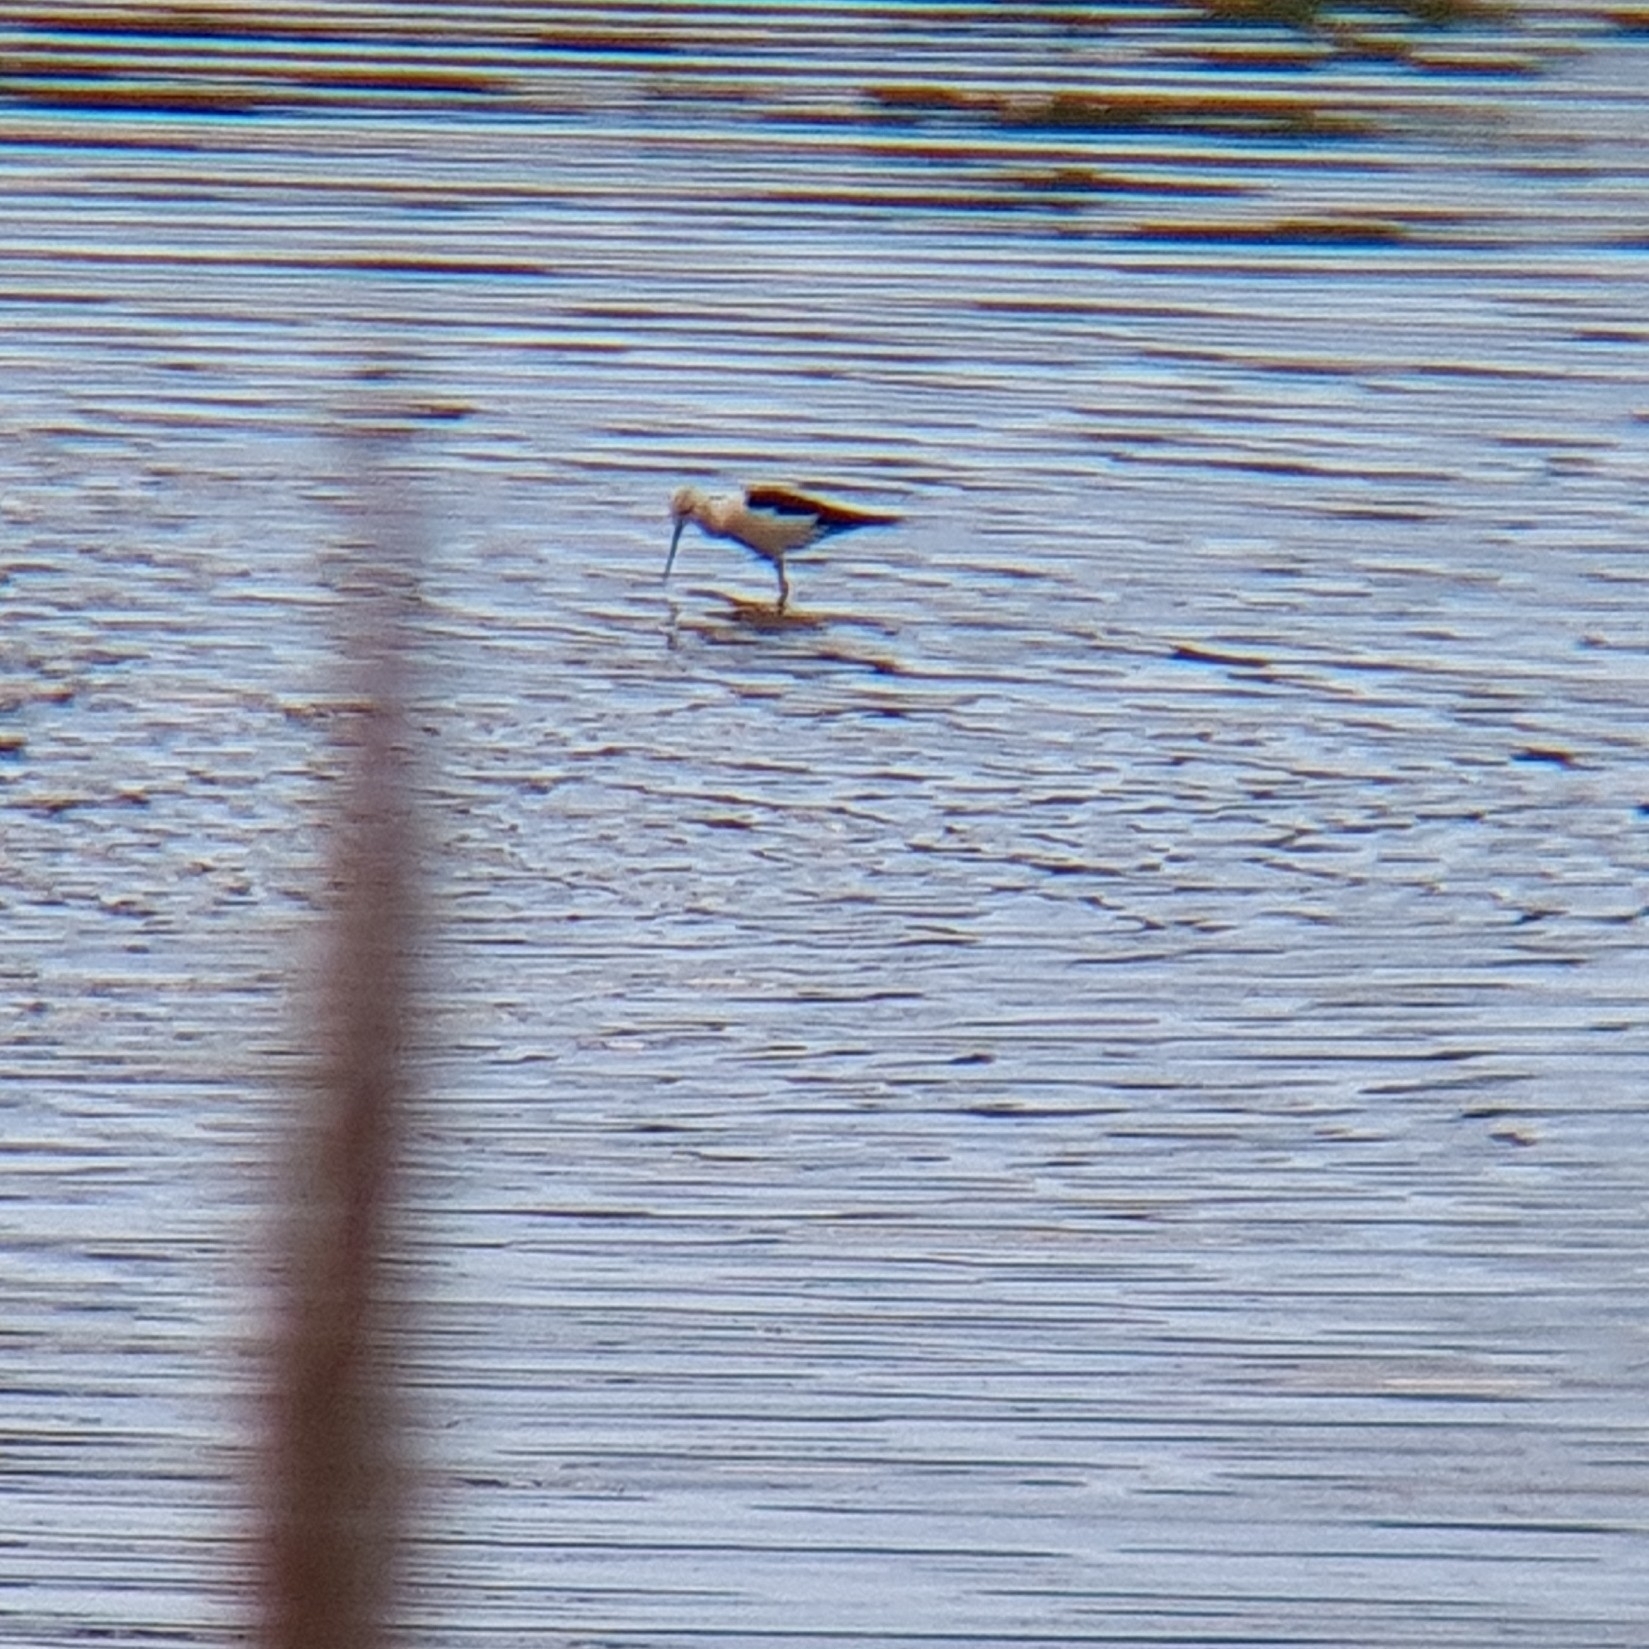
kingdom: Animalia
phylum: Chordata
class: Aves
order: Charadriiformes
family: Recurvirostridae
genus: Himantopus
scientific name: Himantopus himantopus
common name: Black-winged stilt
